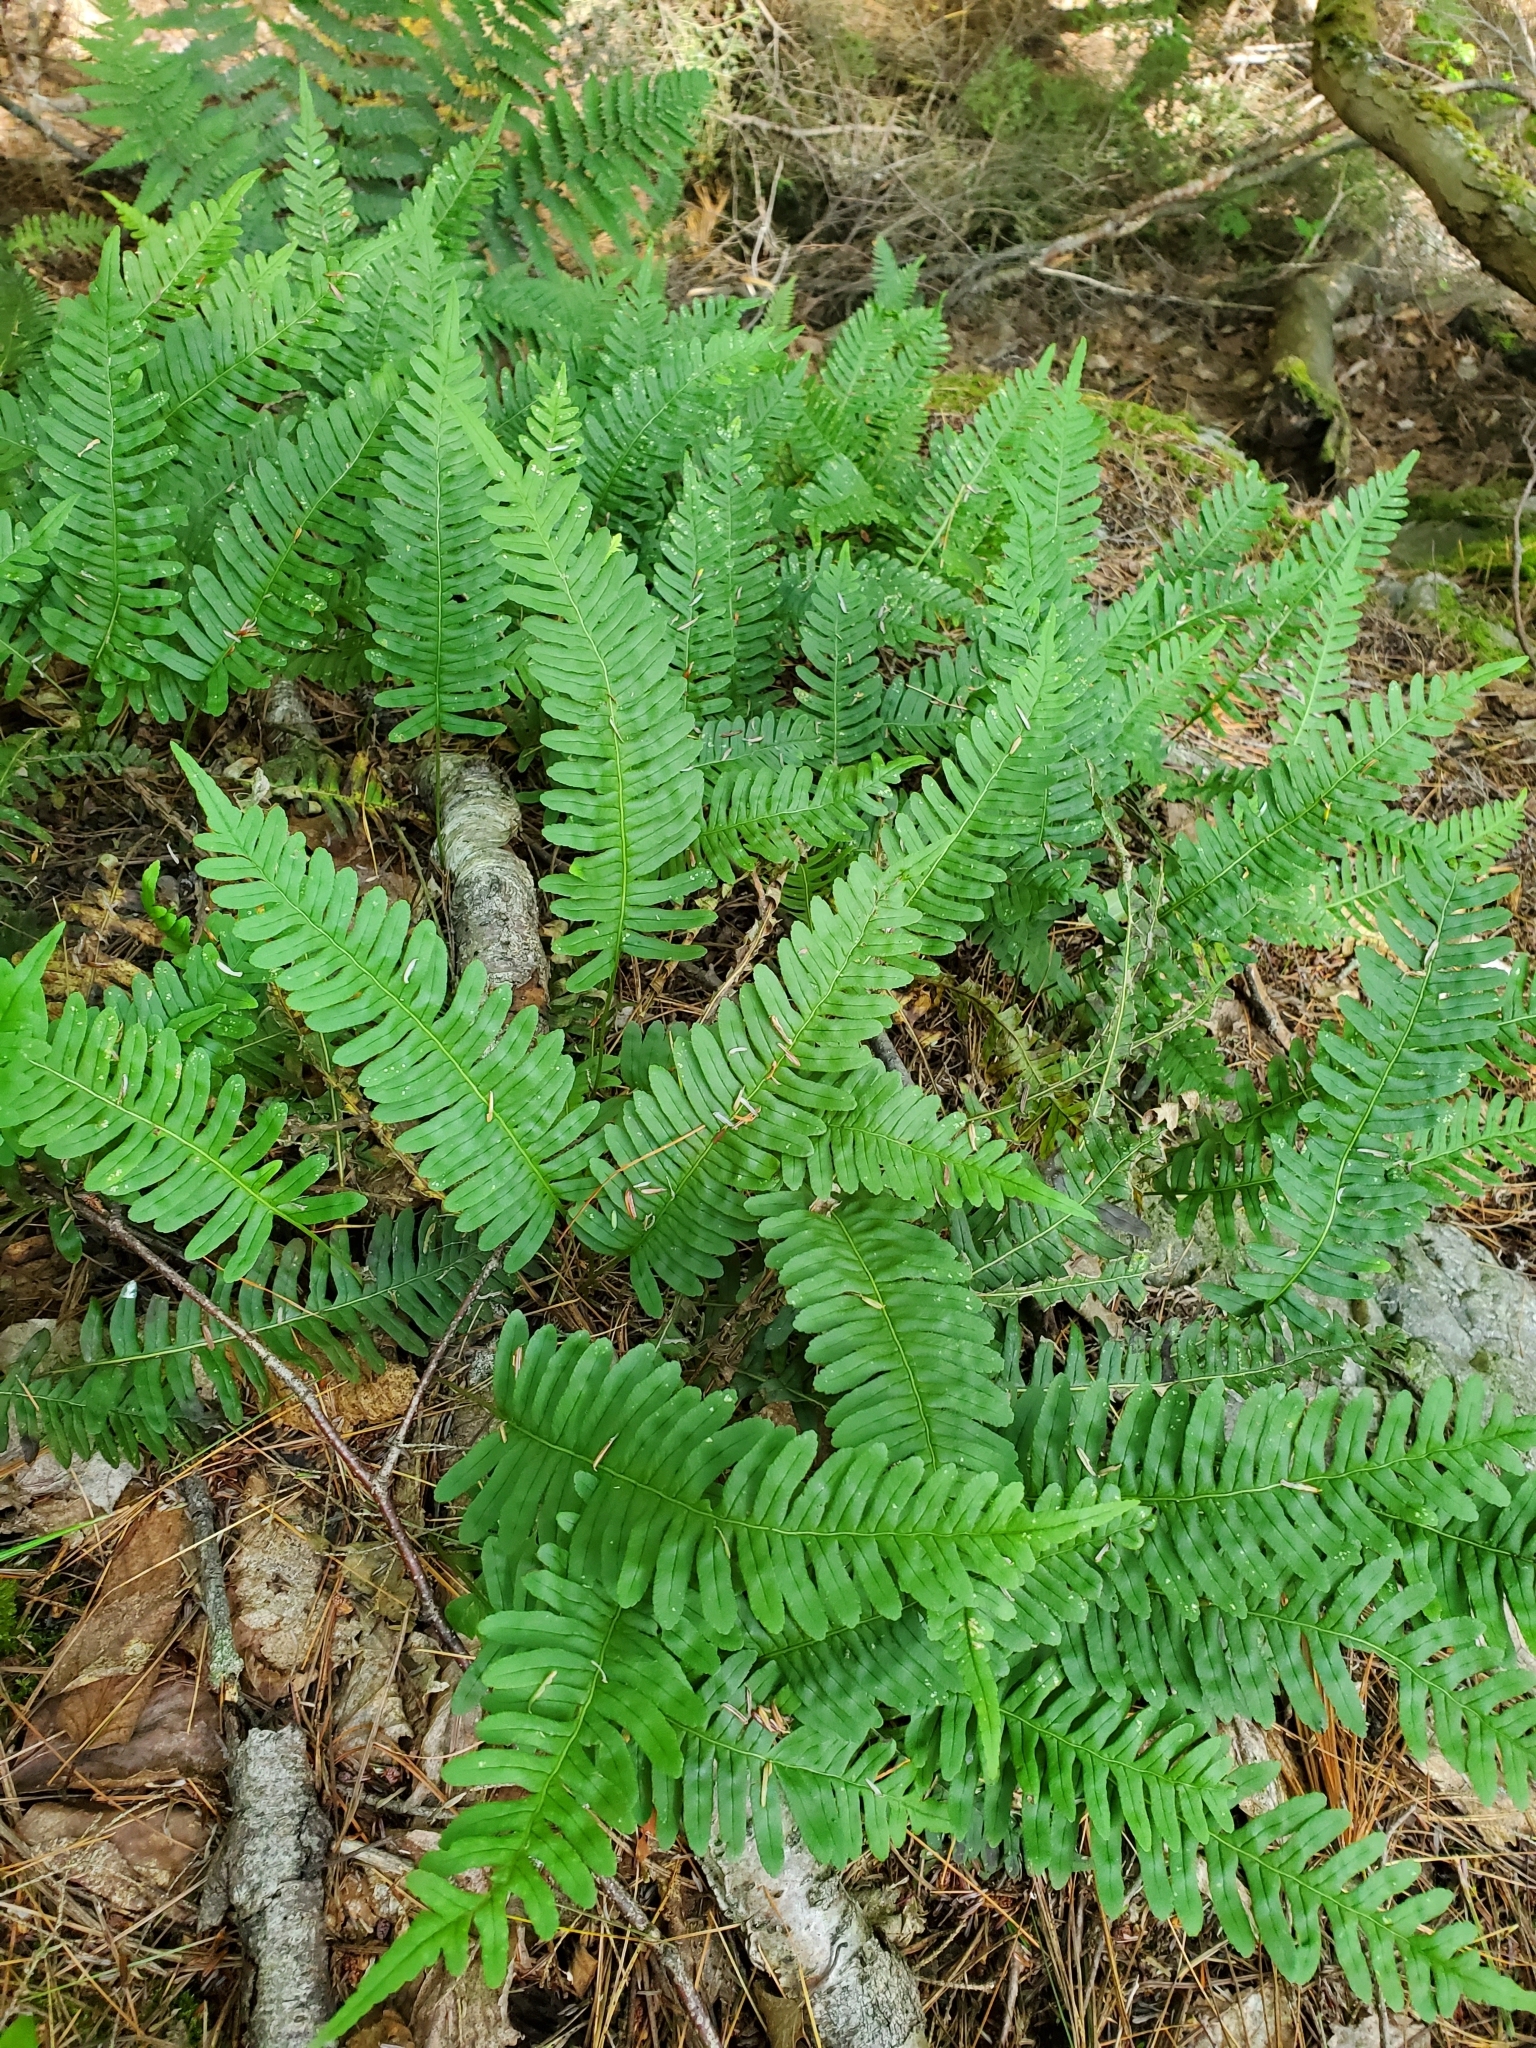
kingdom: Plantae
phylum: Tracheophyta
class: Polypodiopsida
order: Polypodiales
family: Polypodiaceae
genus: Polypodium
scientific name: Polypodium virginianum
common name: American wall fern
